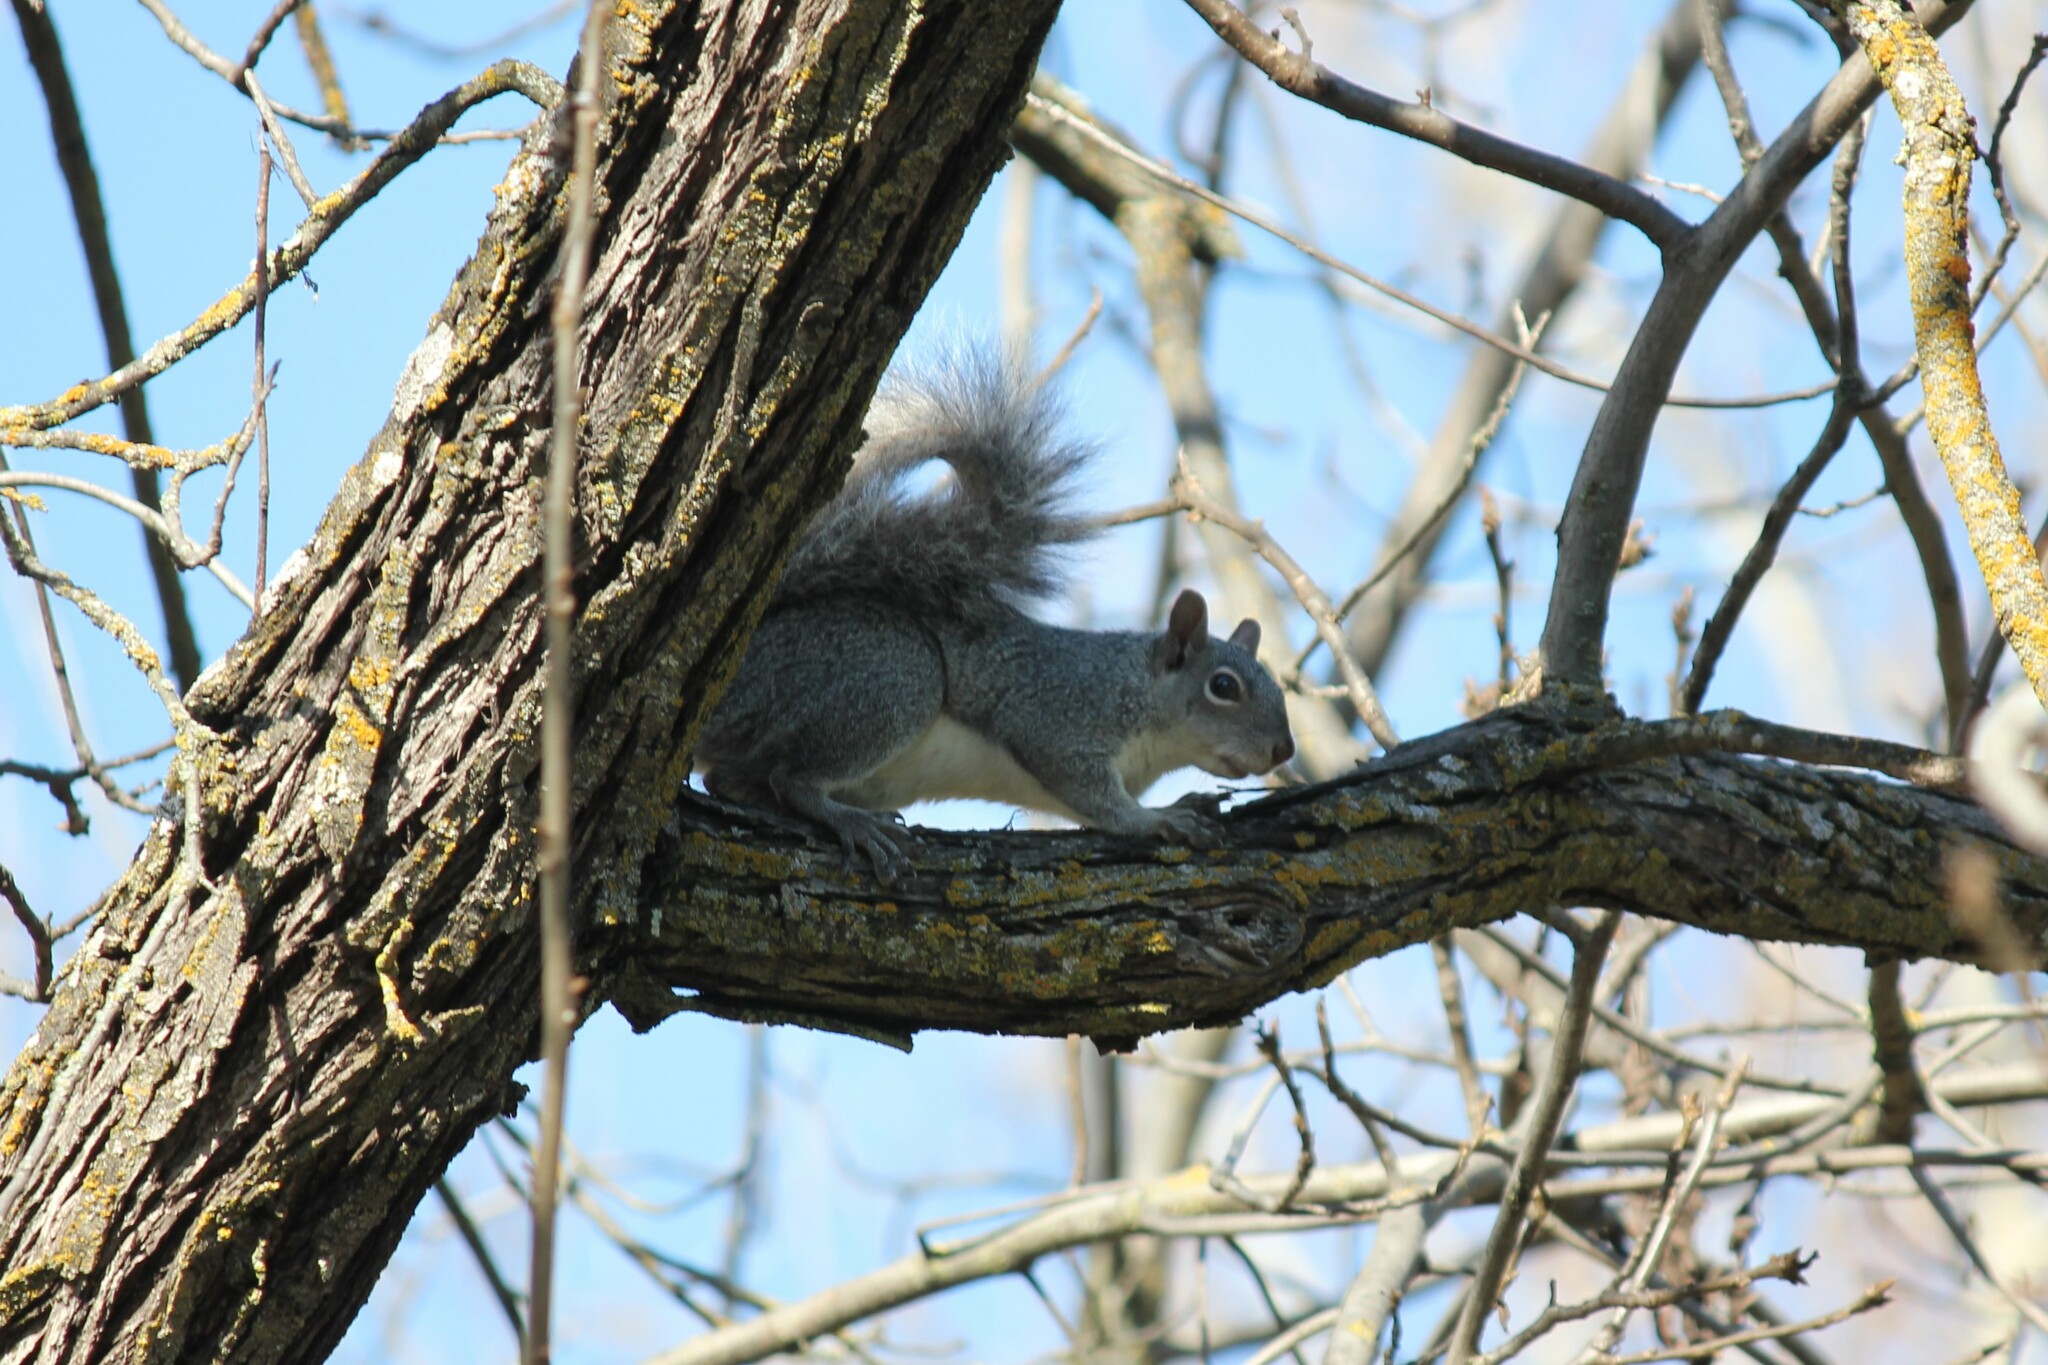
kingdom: Animalia
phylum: Chordata
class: Mammalia
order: Rodentia
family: Sciuridae
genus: Sciurus
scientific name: Sciurus griseus
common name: Western gray squirrel
